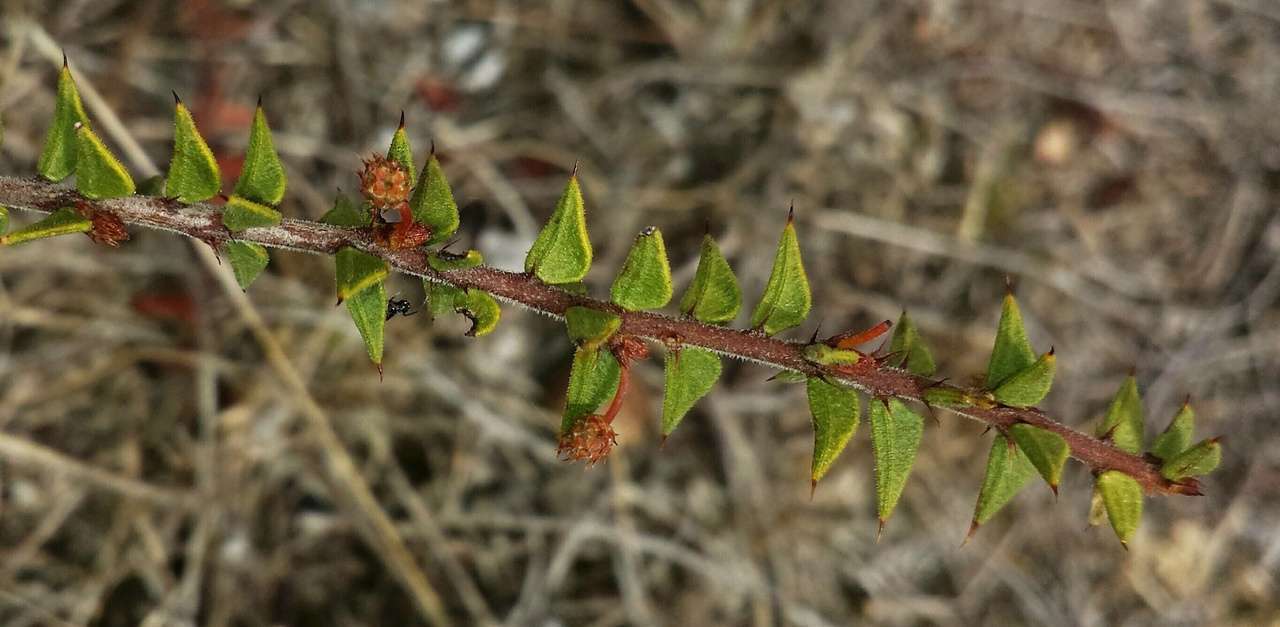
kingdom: Plantae
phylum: Tracheophyta
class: Magnoliopsida
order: Fabales
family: Fabaceae
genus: Acacia
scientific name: Acacia gunnii
